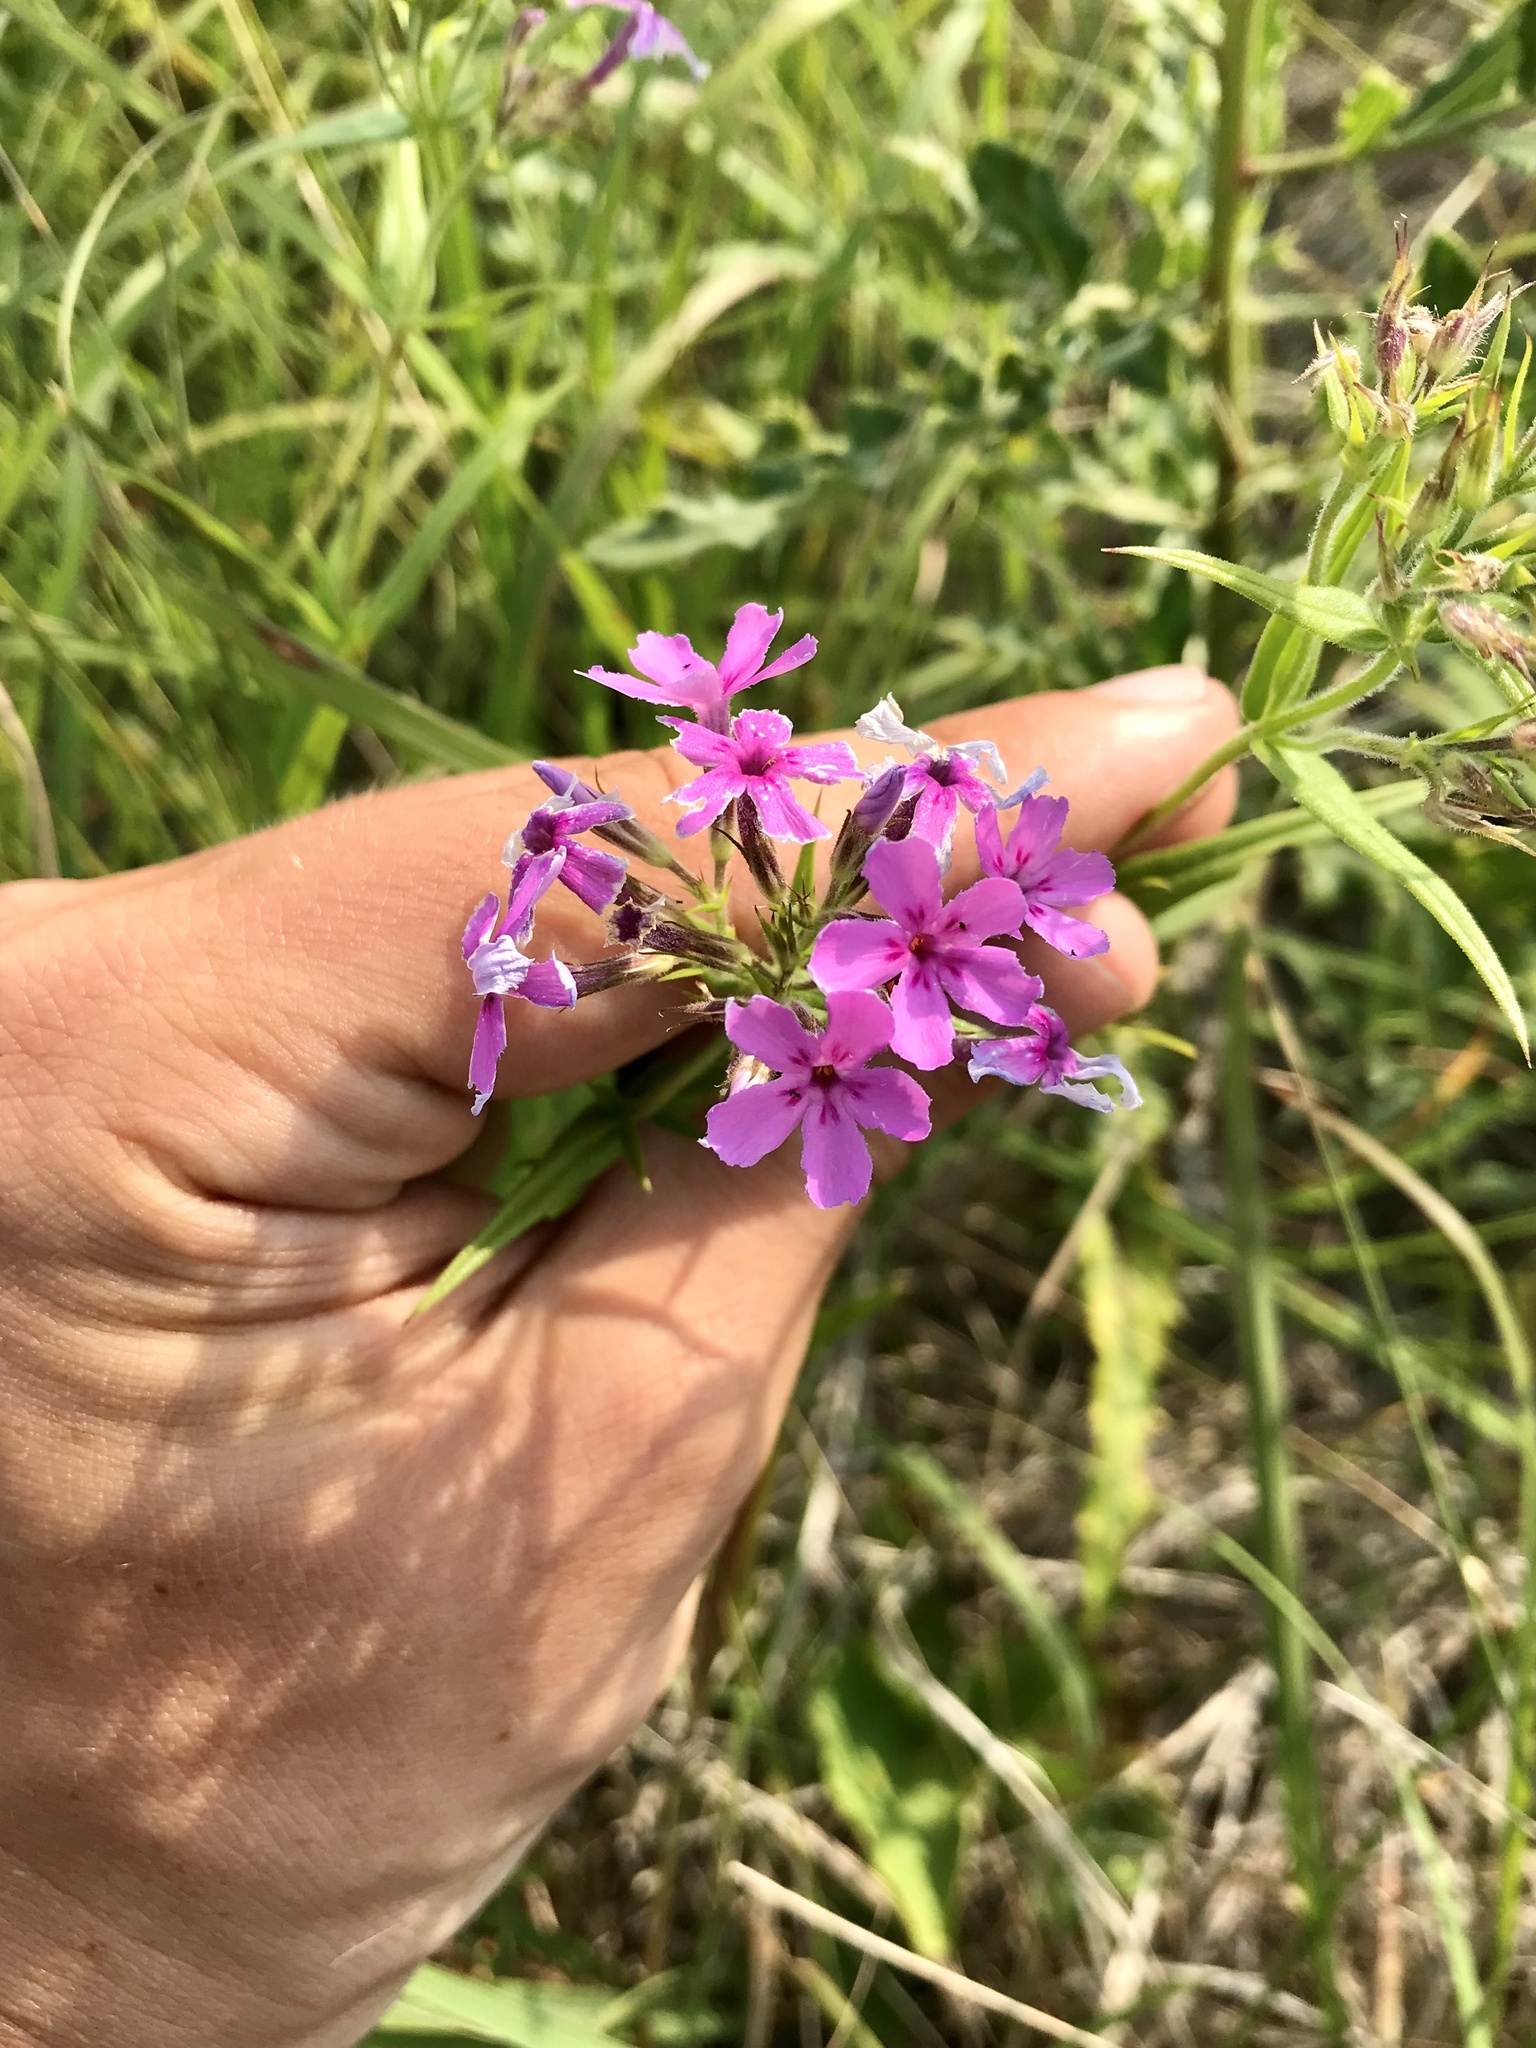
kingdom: Plantae
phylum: Tracheophyta
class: Magnoliopsida
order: Ericales
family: Polemoniaceae
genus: Phlox
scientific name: Phlox pilosa
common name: Prairie phlox
